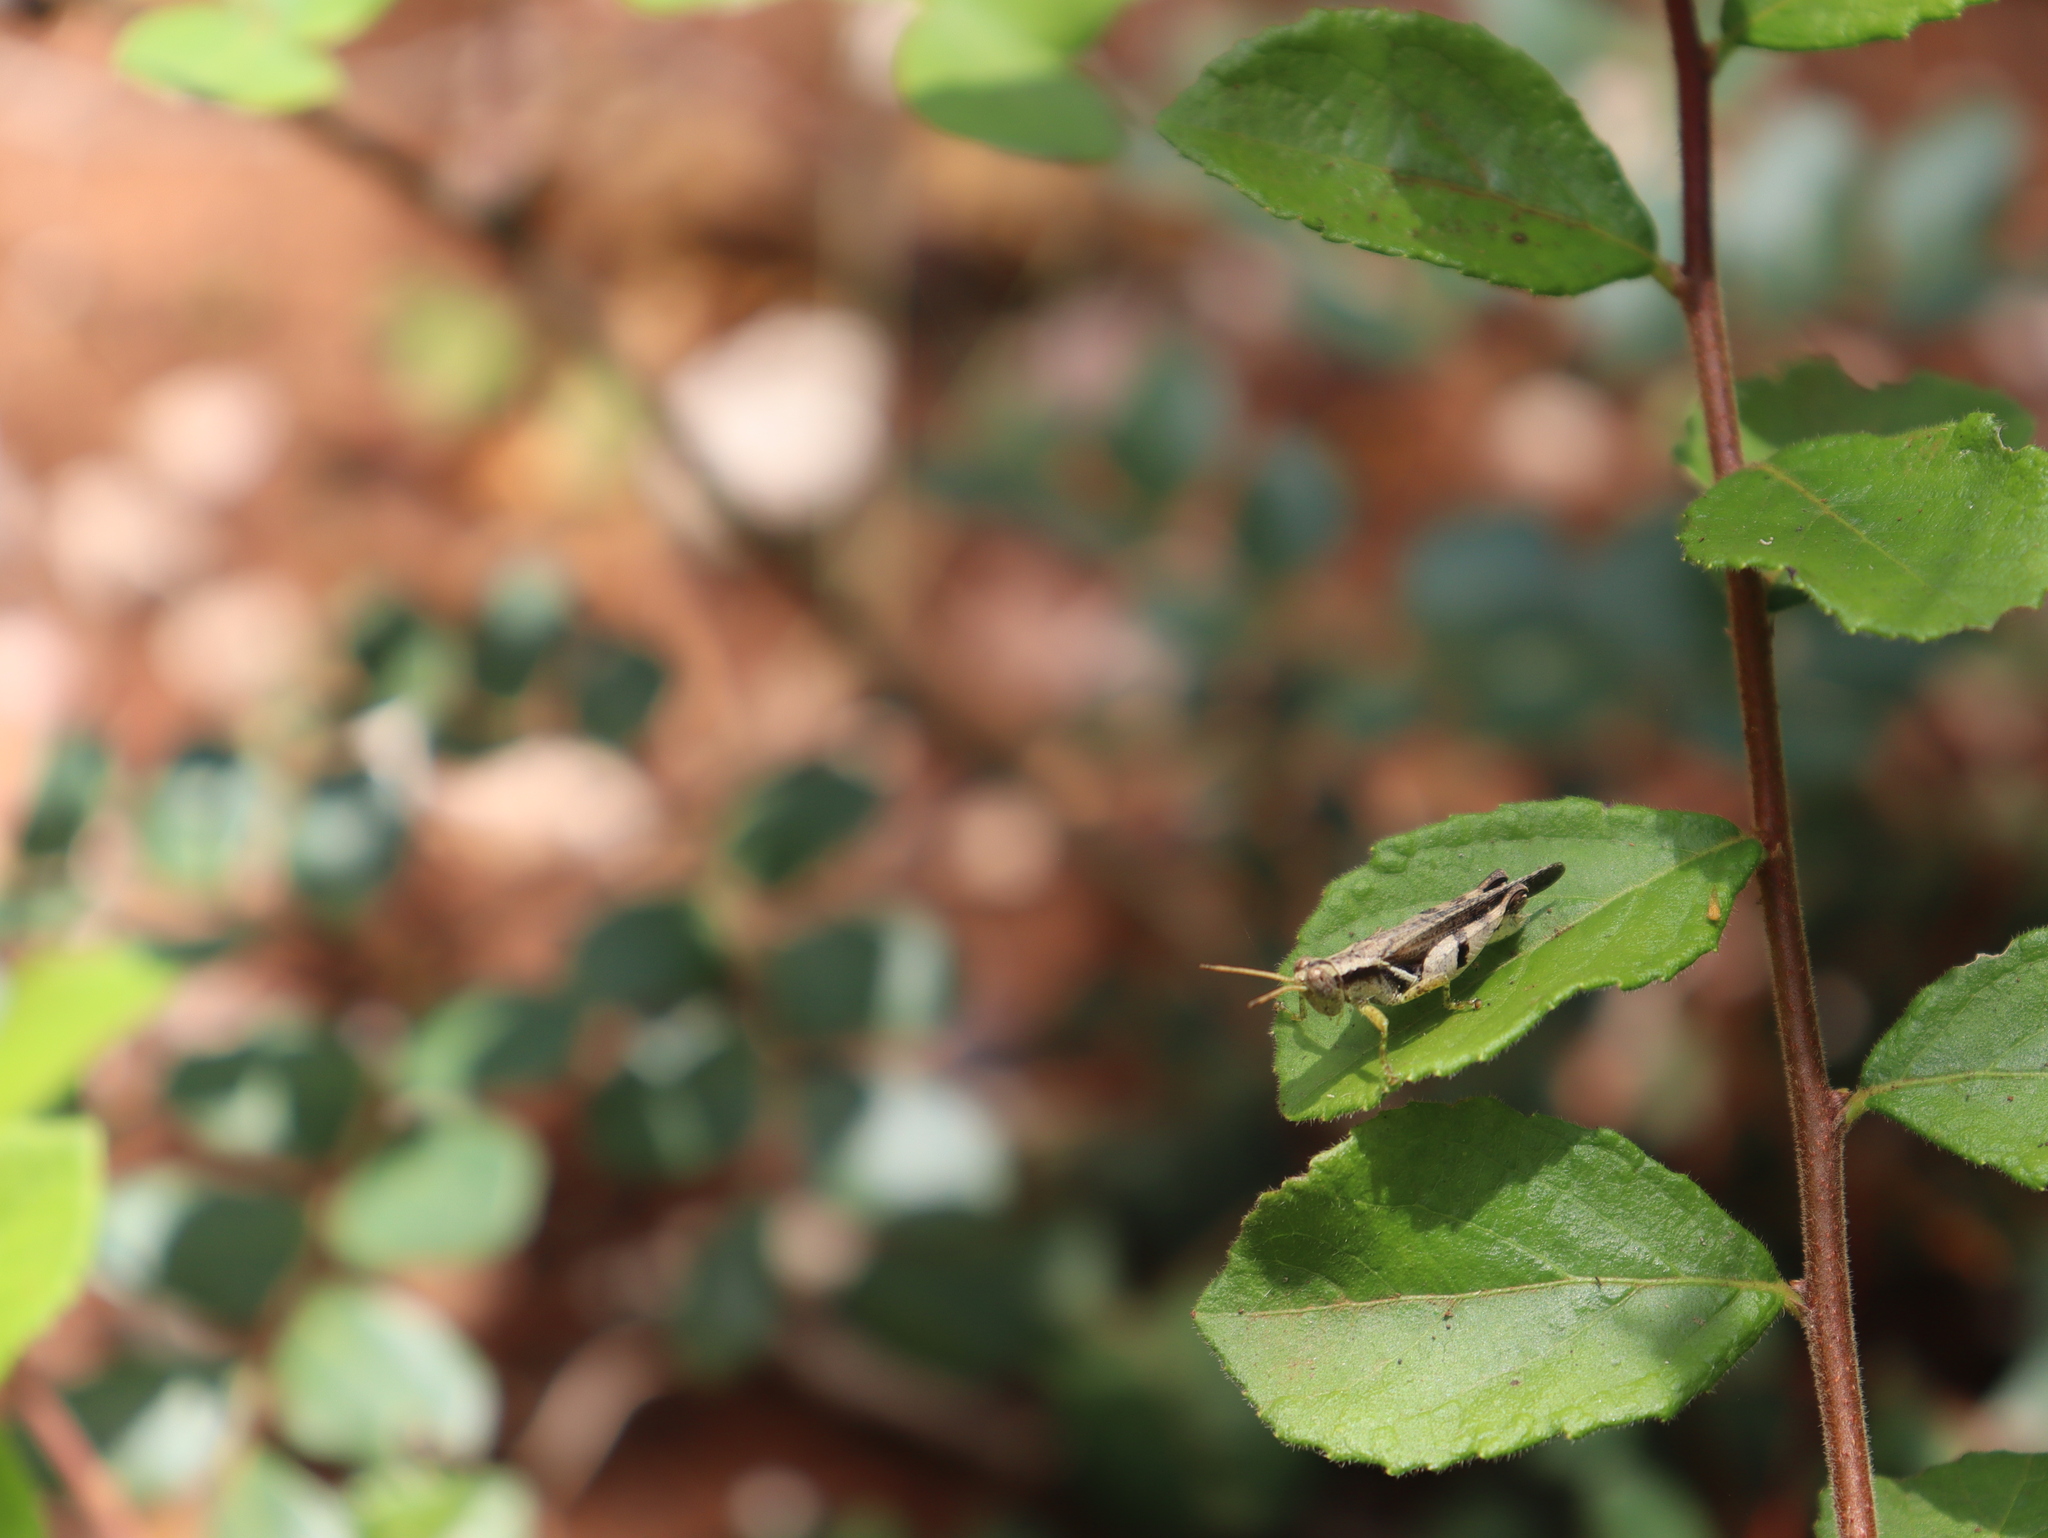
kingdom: Animalia
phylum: Arthropoda
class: Insecta
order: Orthoptera
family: Acrididae
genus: Abracris
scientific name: Abracris dilecta
